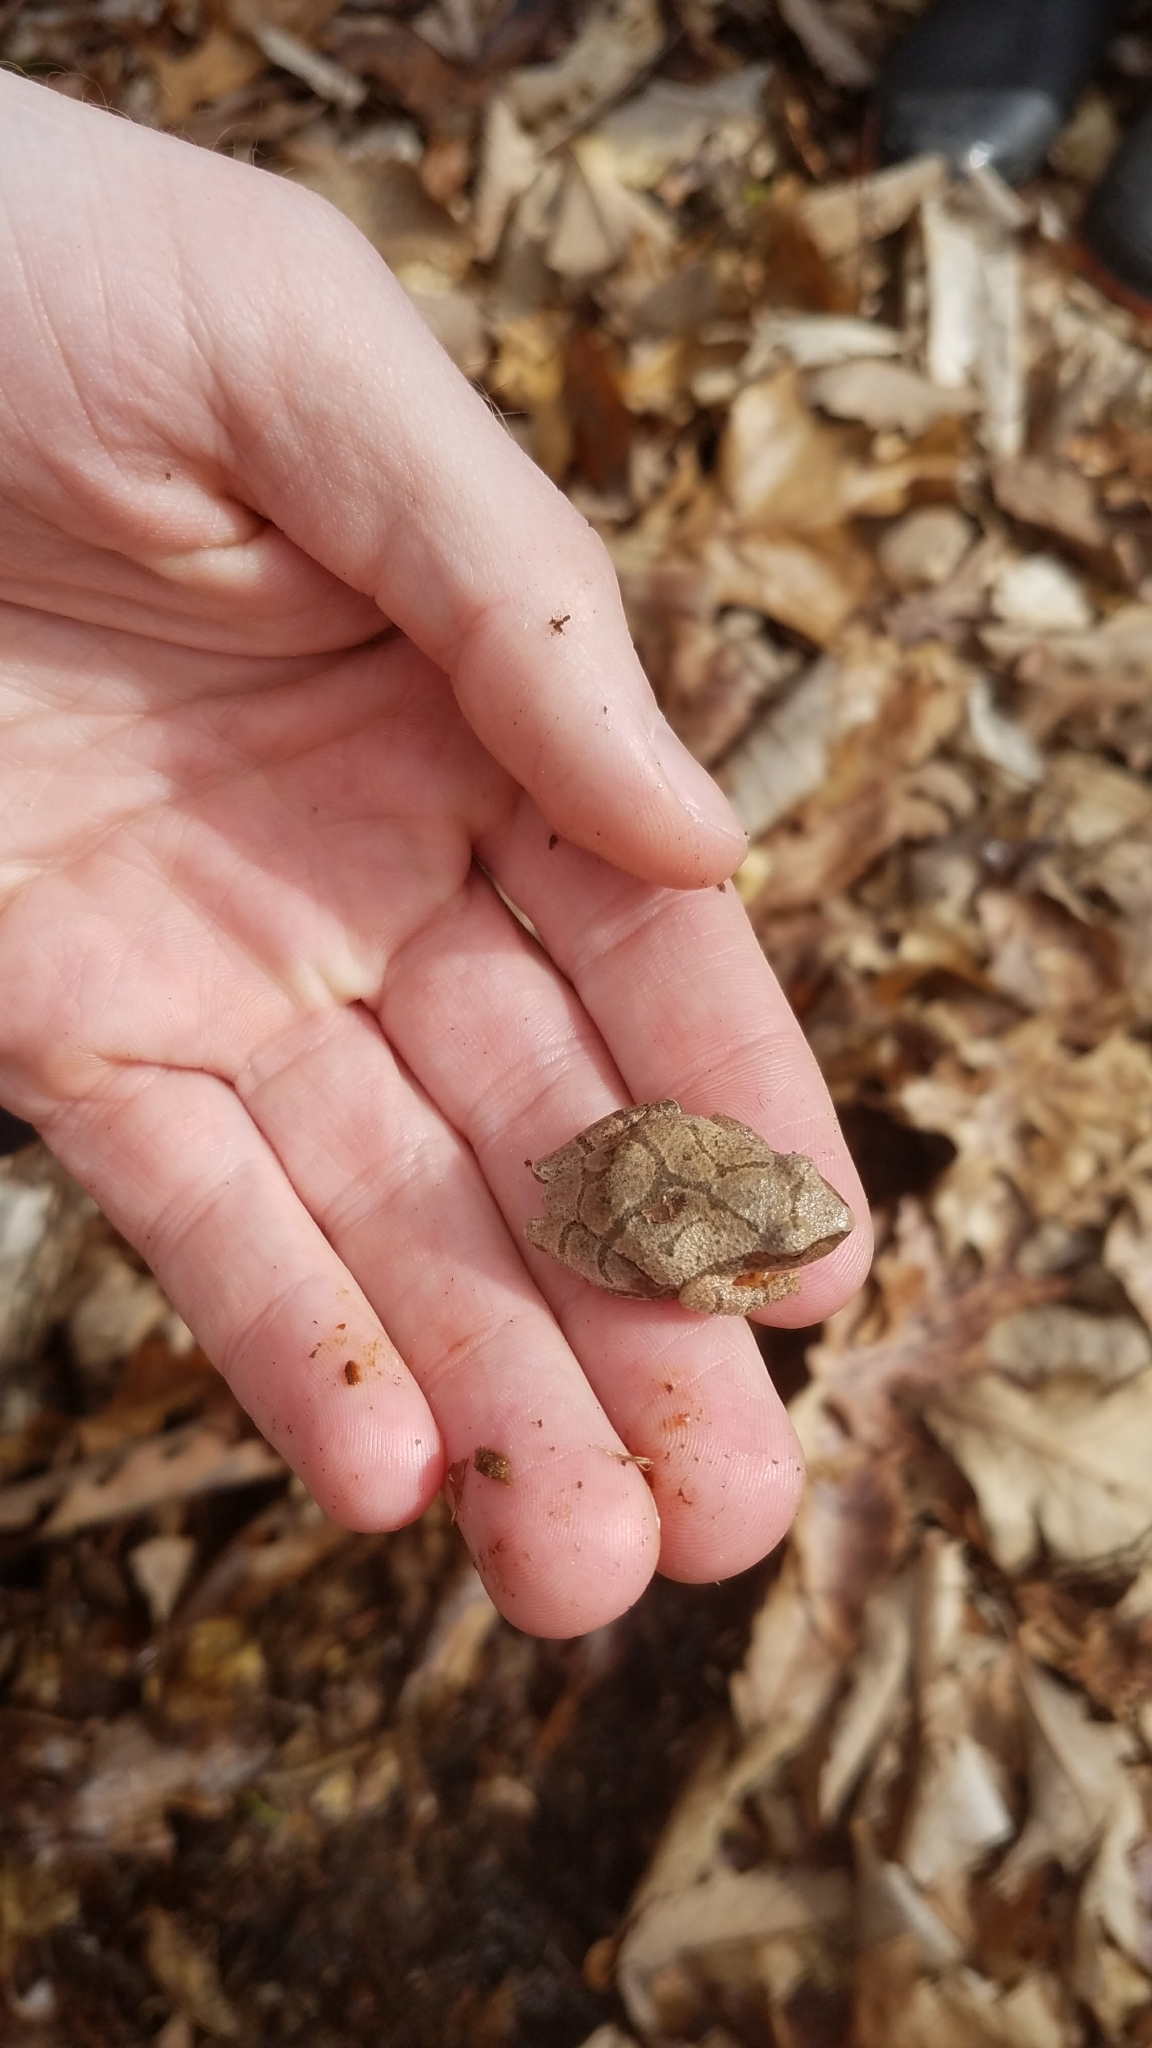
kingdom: Animalia
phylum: Chordata
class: Amphibia
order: Anura
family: Hylidae
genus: Pseudacris
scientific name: Pseudacris crucifer
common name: Spring peeper
